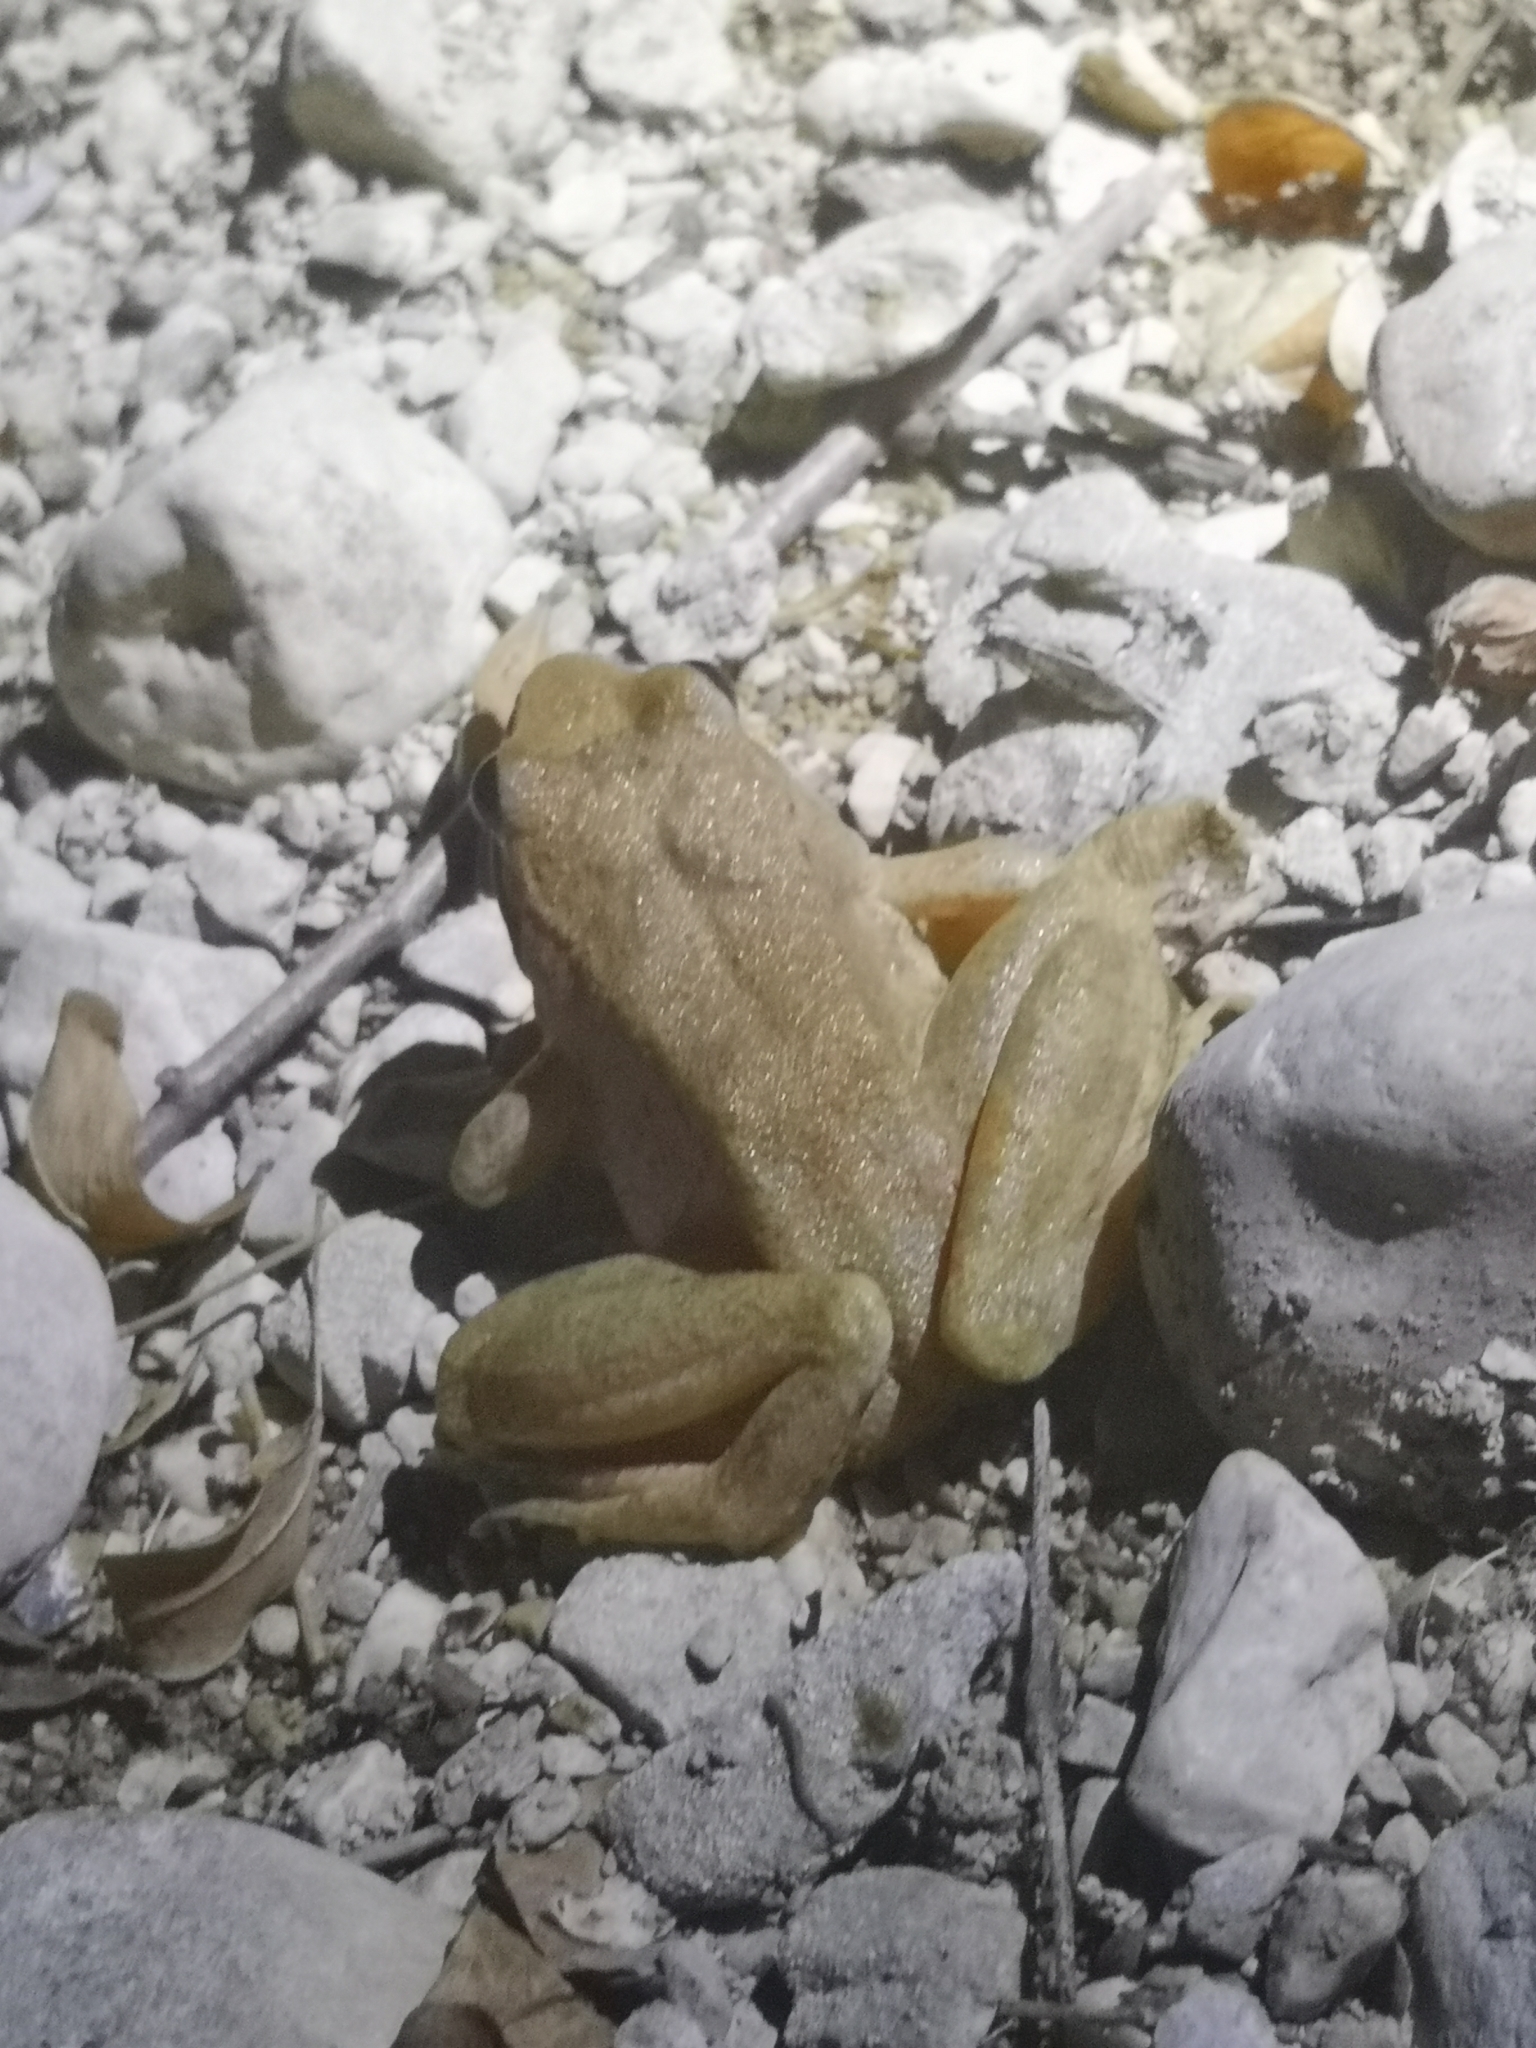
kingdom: Animalia
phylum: Chordata
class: Amphibia
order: Anura
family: Ranidae
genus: Rana
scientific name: Rana graeca
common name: Greek stream frog
